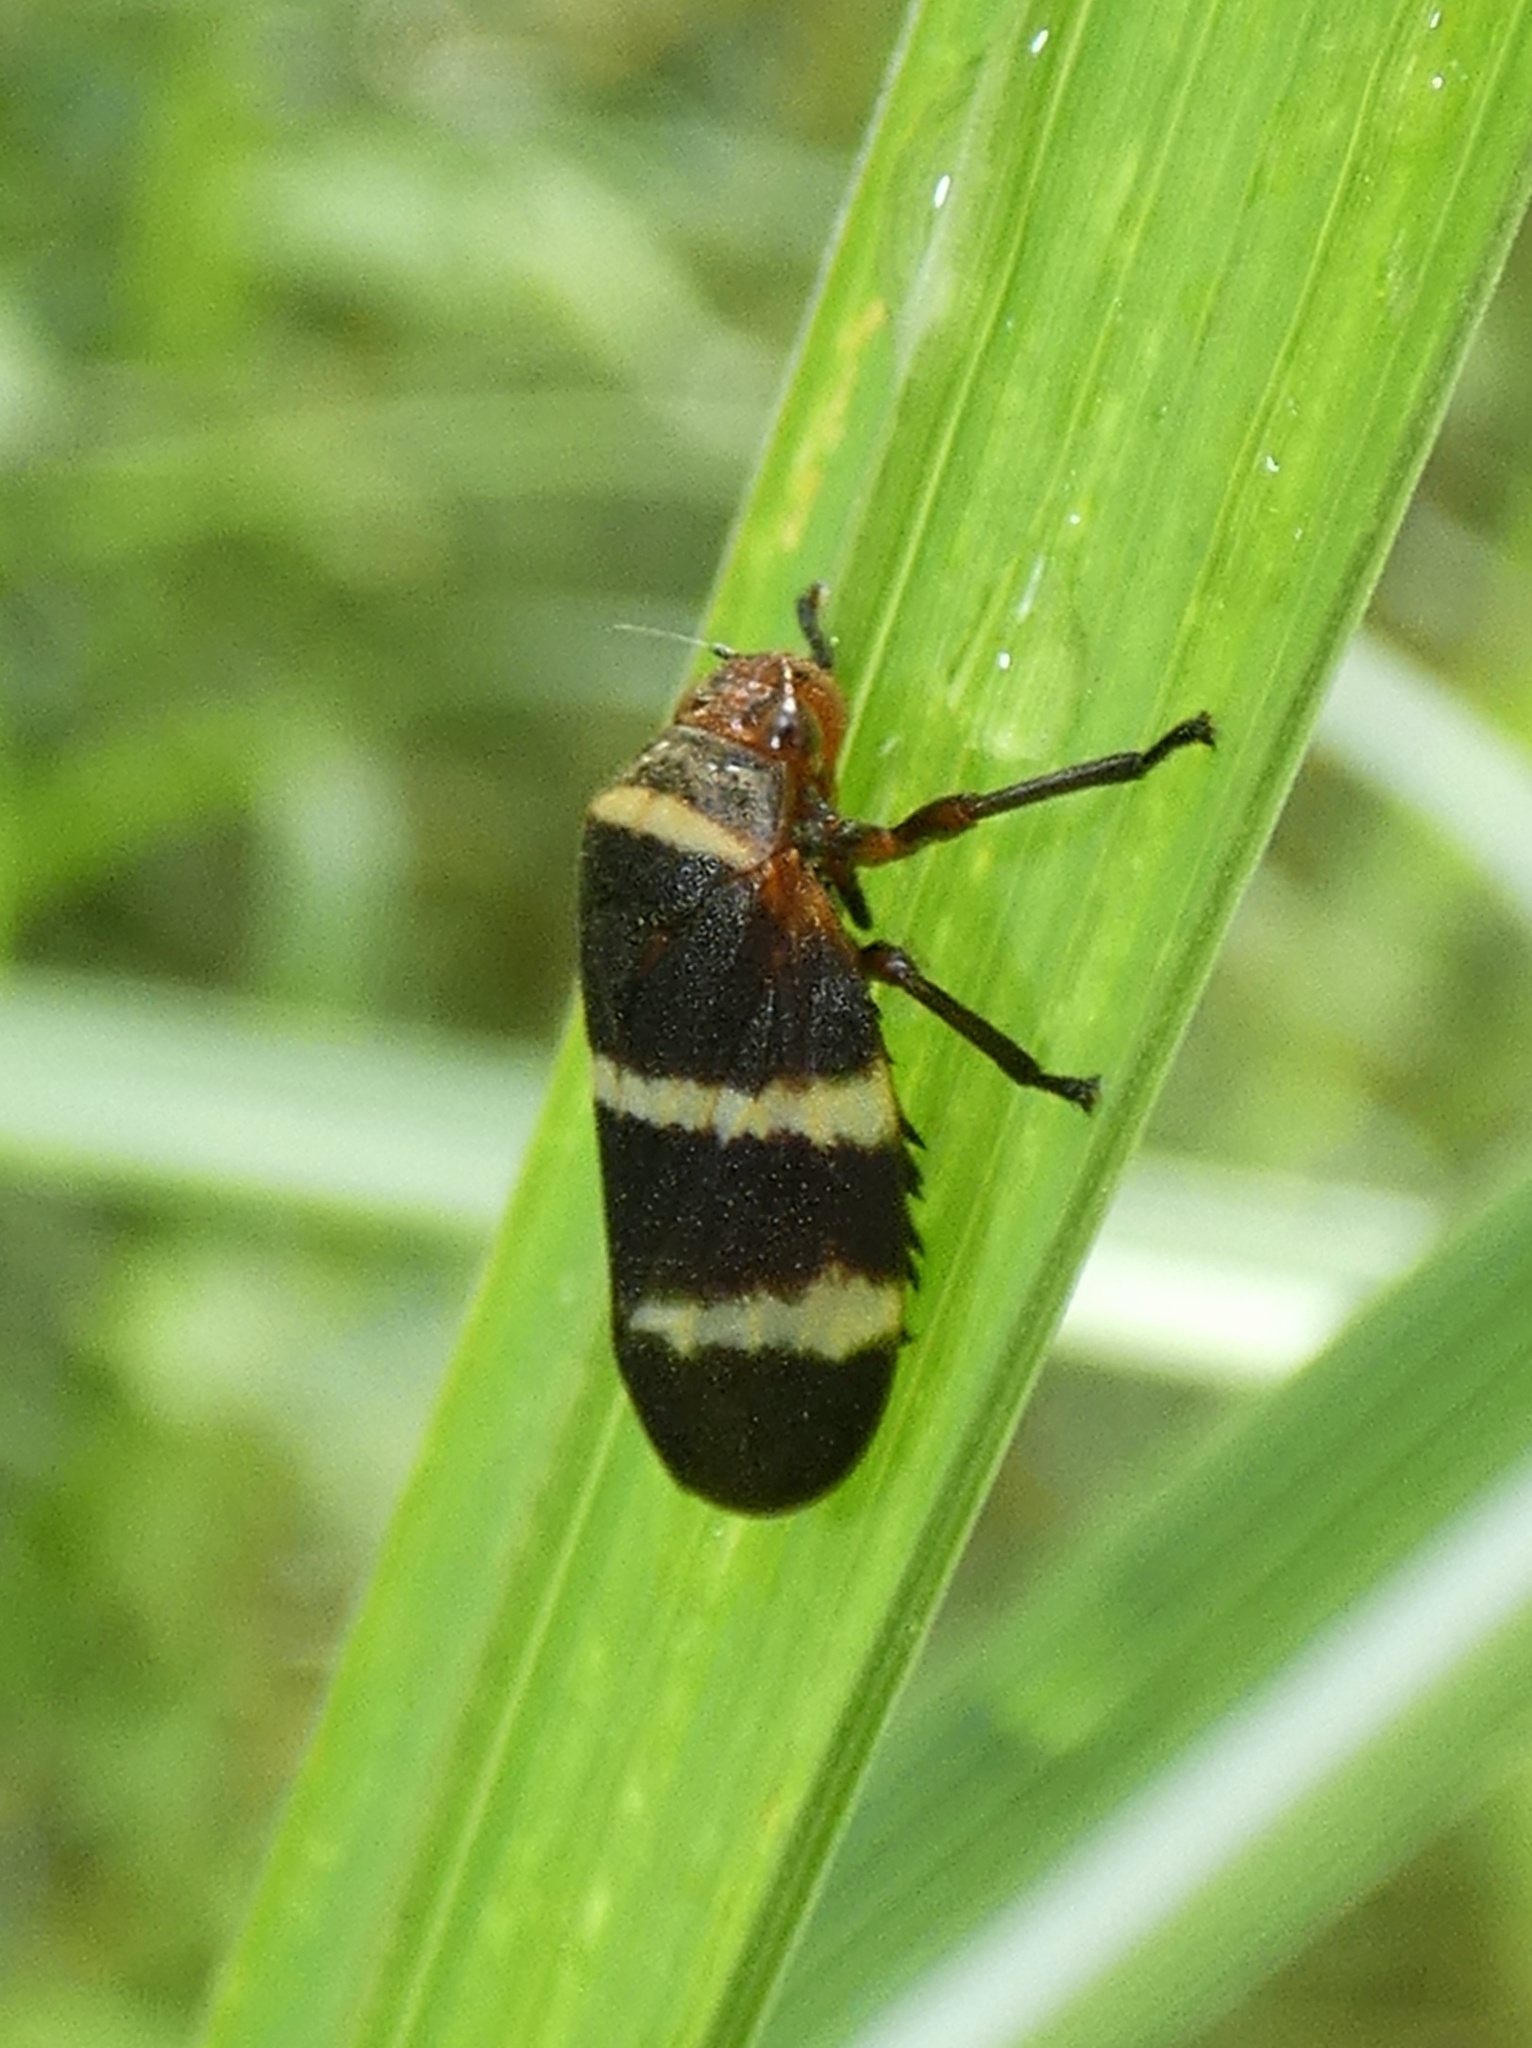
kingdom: Animalia
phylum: Arthropoda
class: Insecta
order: Hemiptera
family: Cercopidae
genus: Prosapia
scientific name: Prosapia simulans
